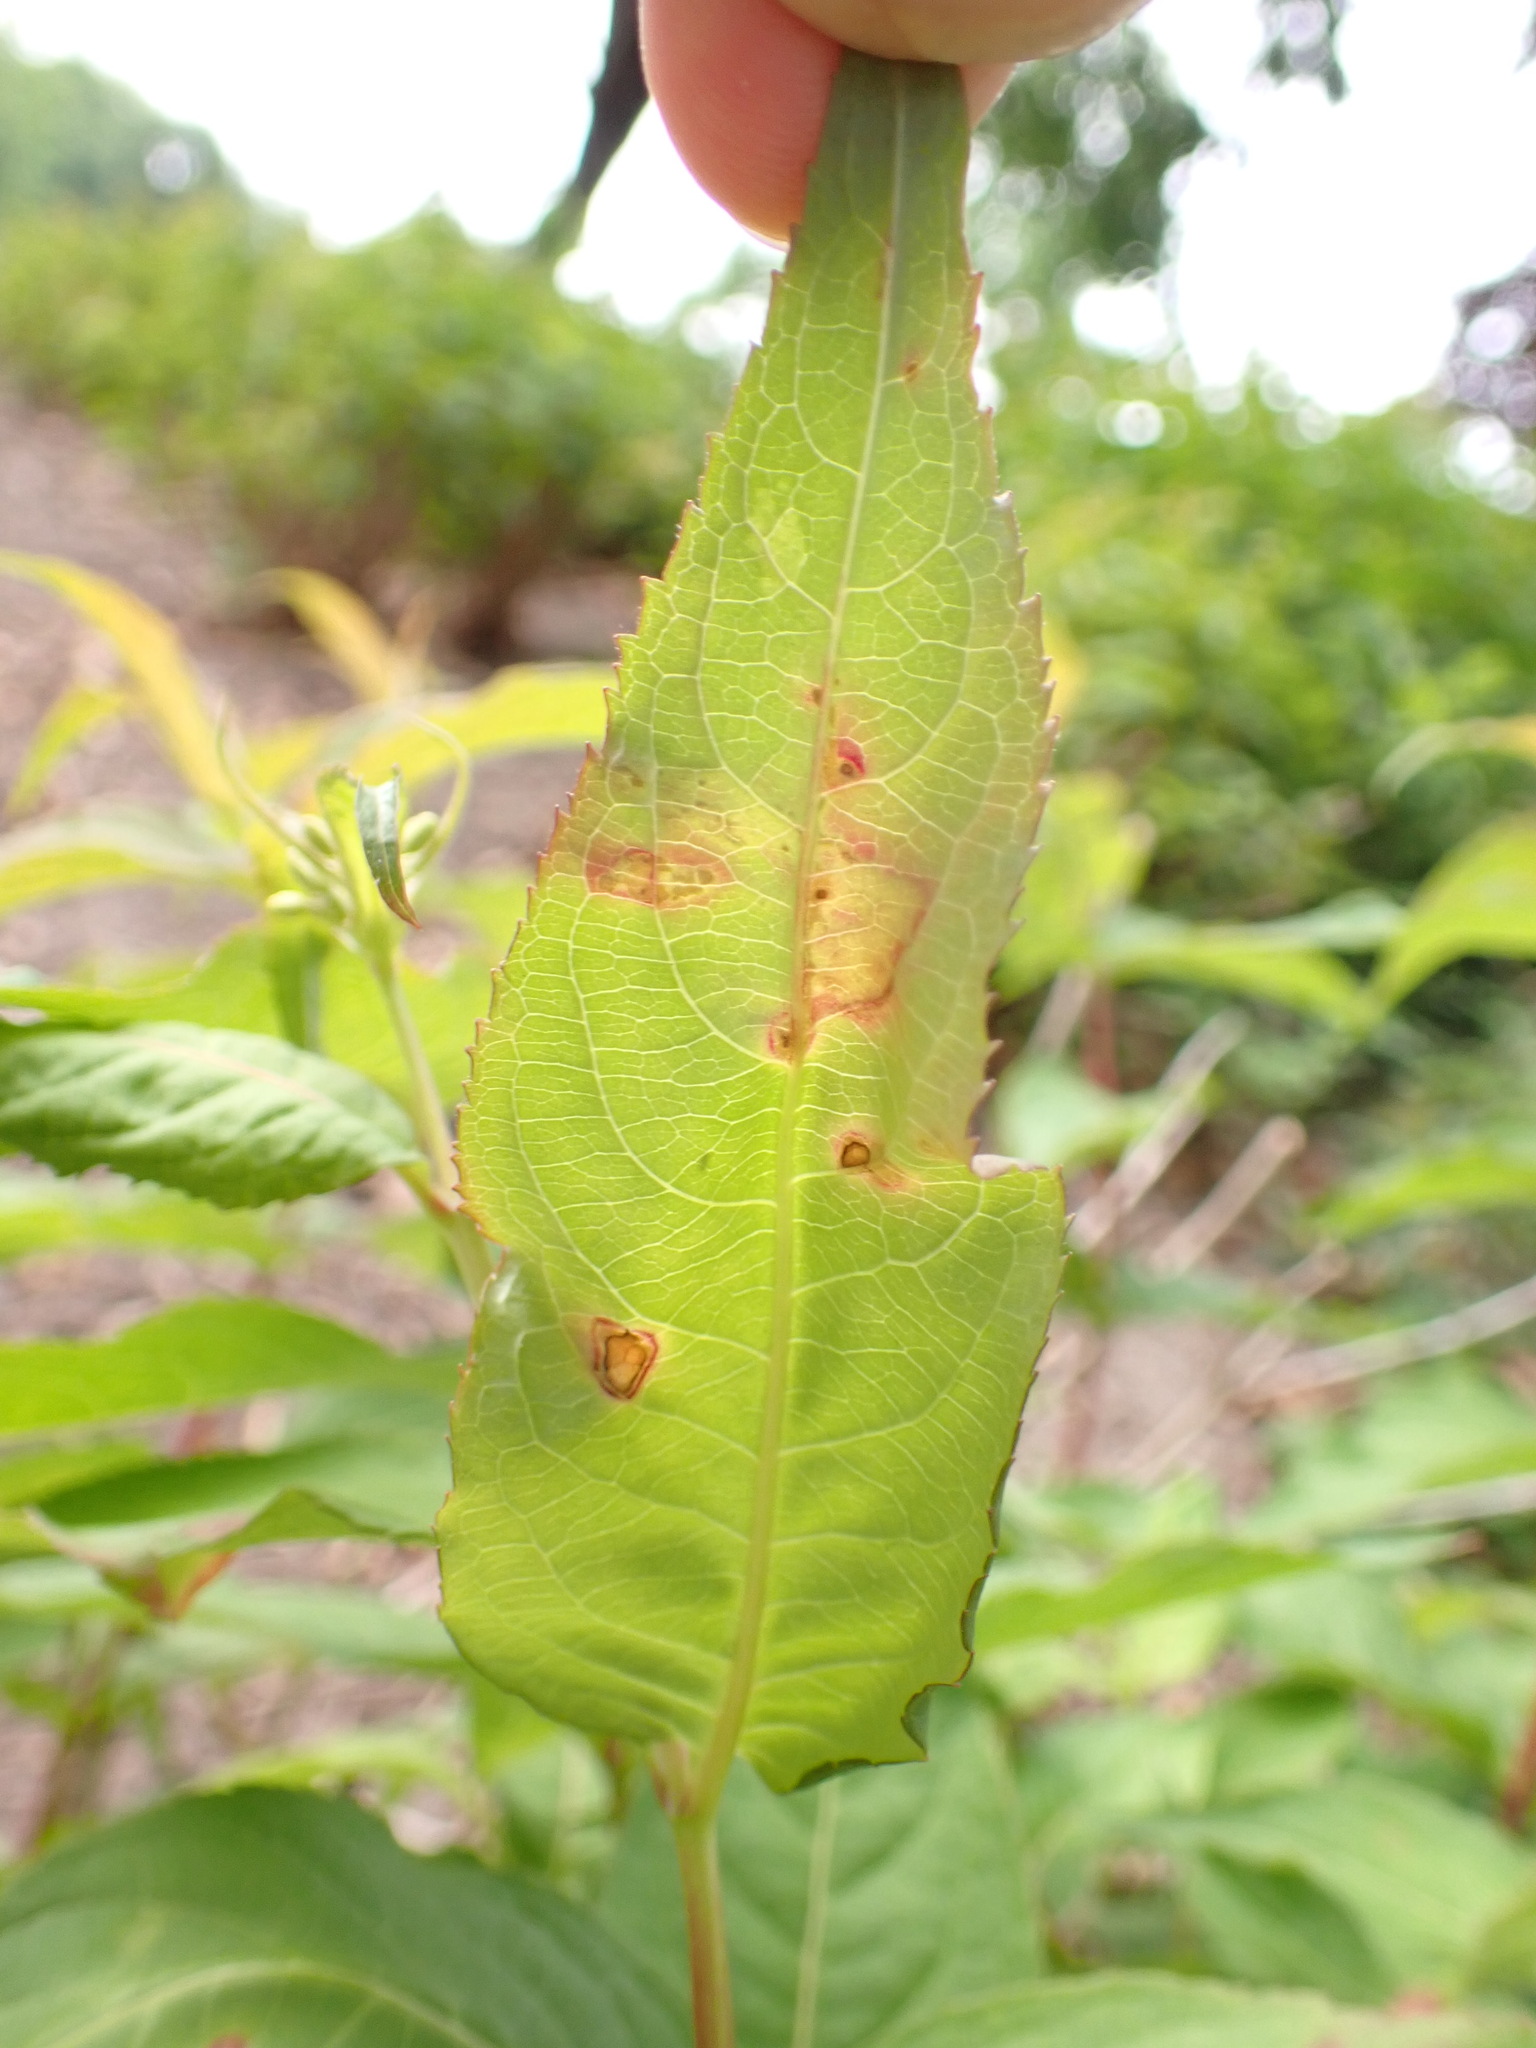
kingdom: Plantae
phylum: Tracheophyta
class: Magnoliopsida
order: Dipsacales
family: Caprifoliaceae
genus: Diervilla
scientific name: Diervilla lonicera
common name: Bush-honeysuckle
